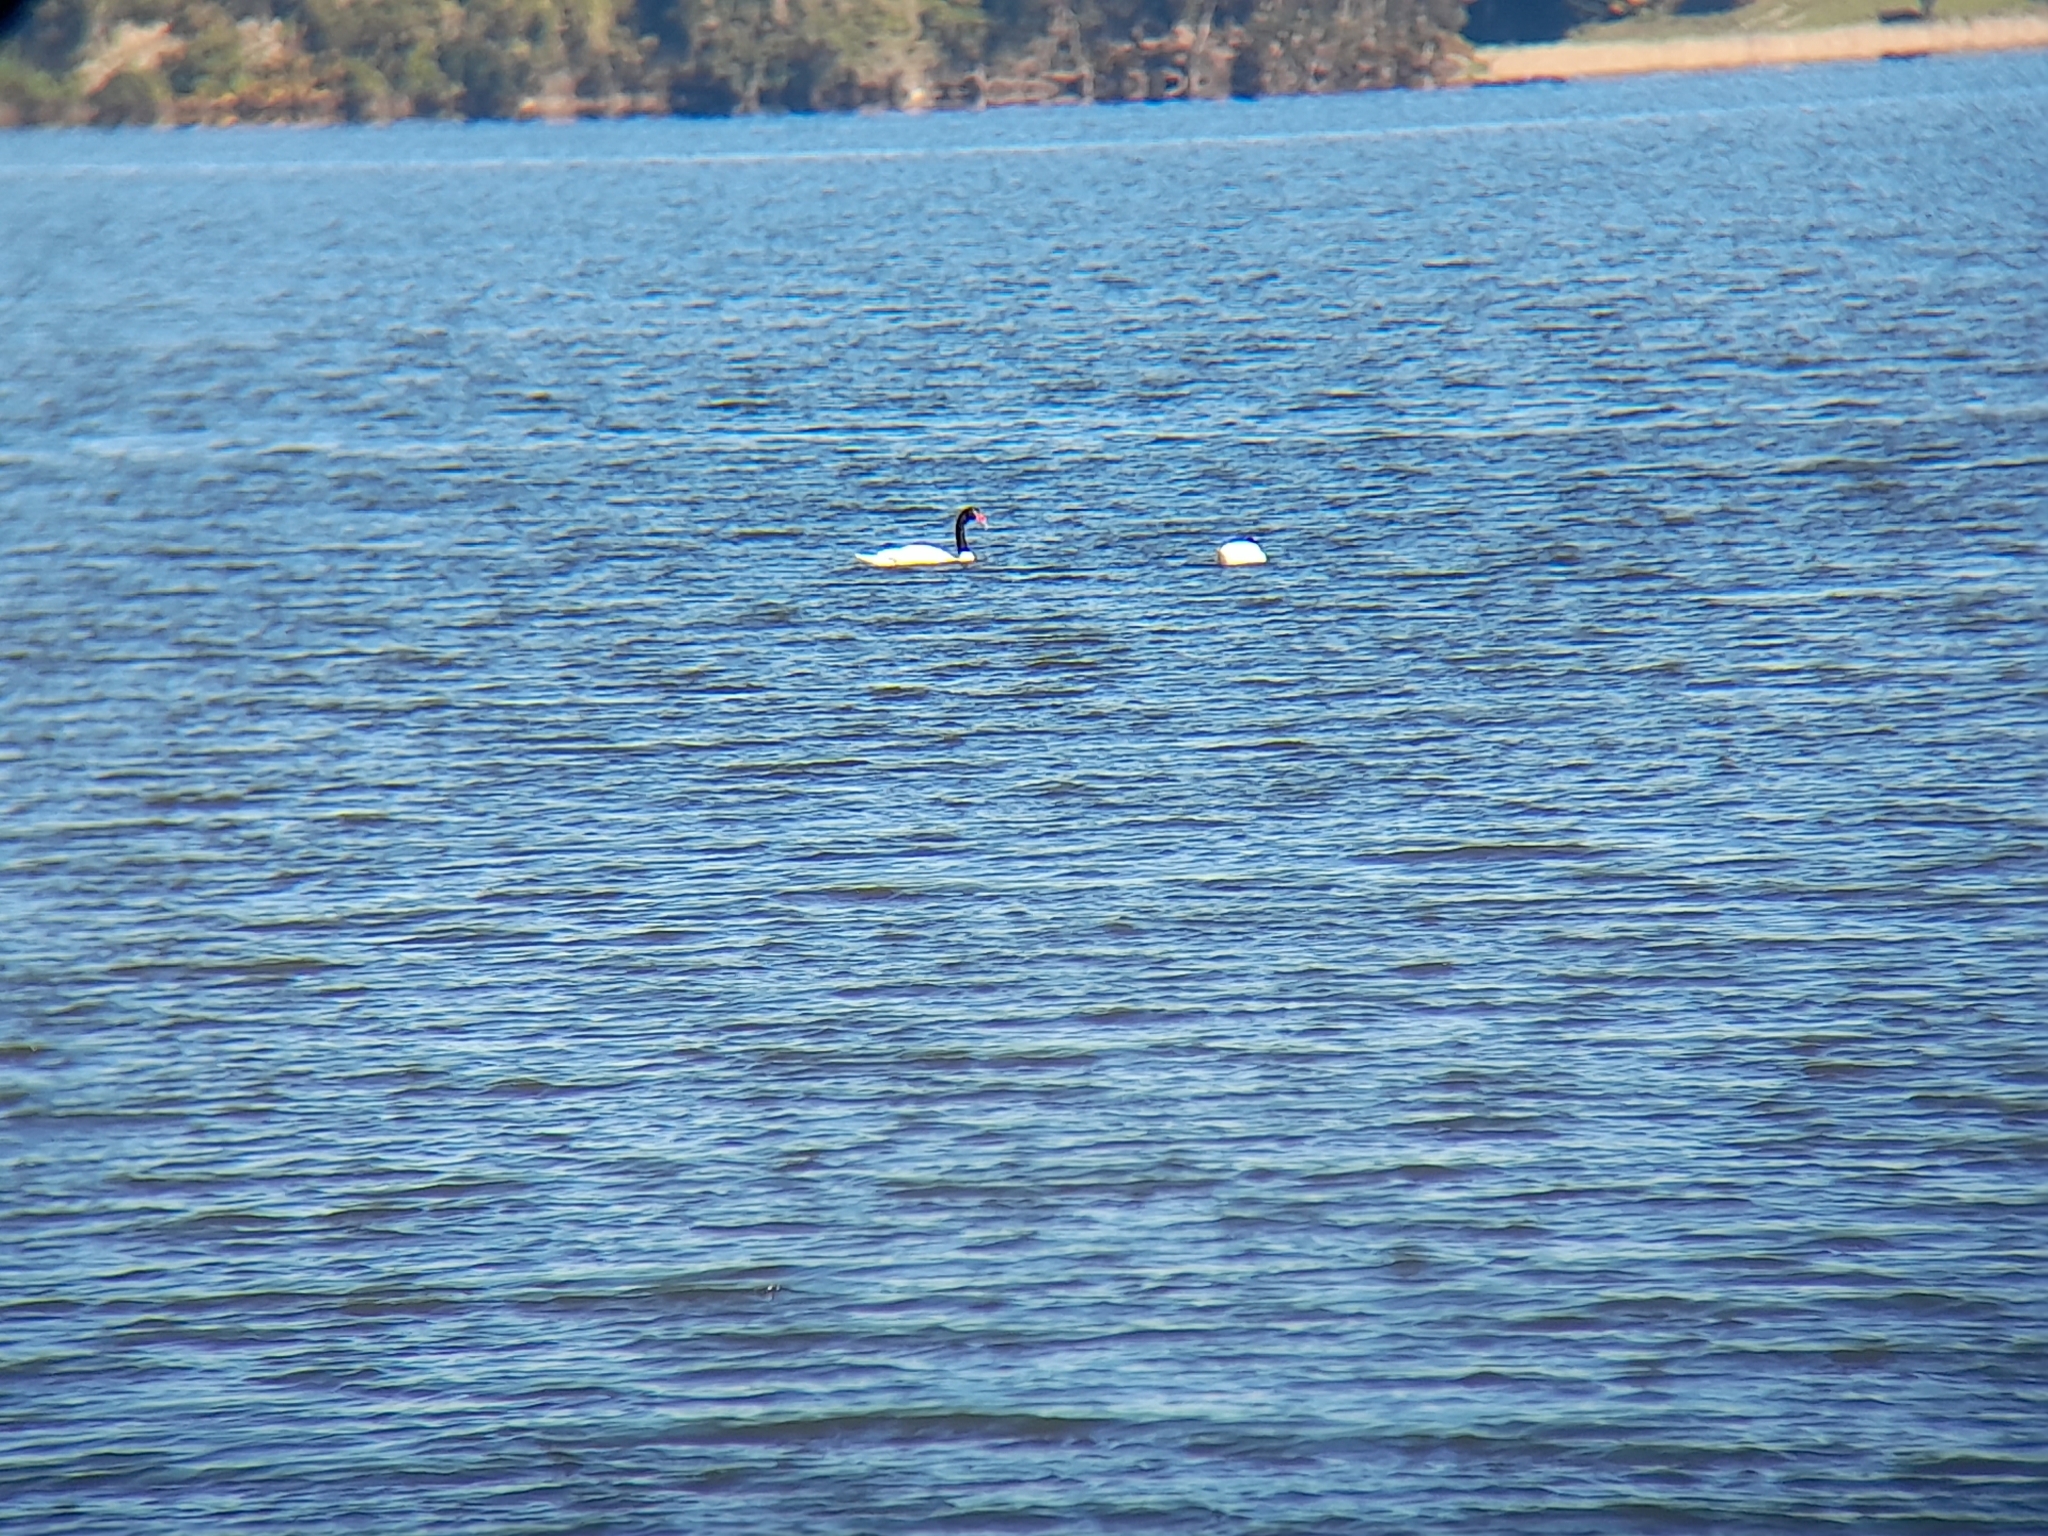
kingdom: Animalia
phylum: Chordata
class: Aves
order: Anseriformes
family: Anatidae
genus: Cygnus
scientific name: Cygnus melancoryphus
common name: Black-necked swan
